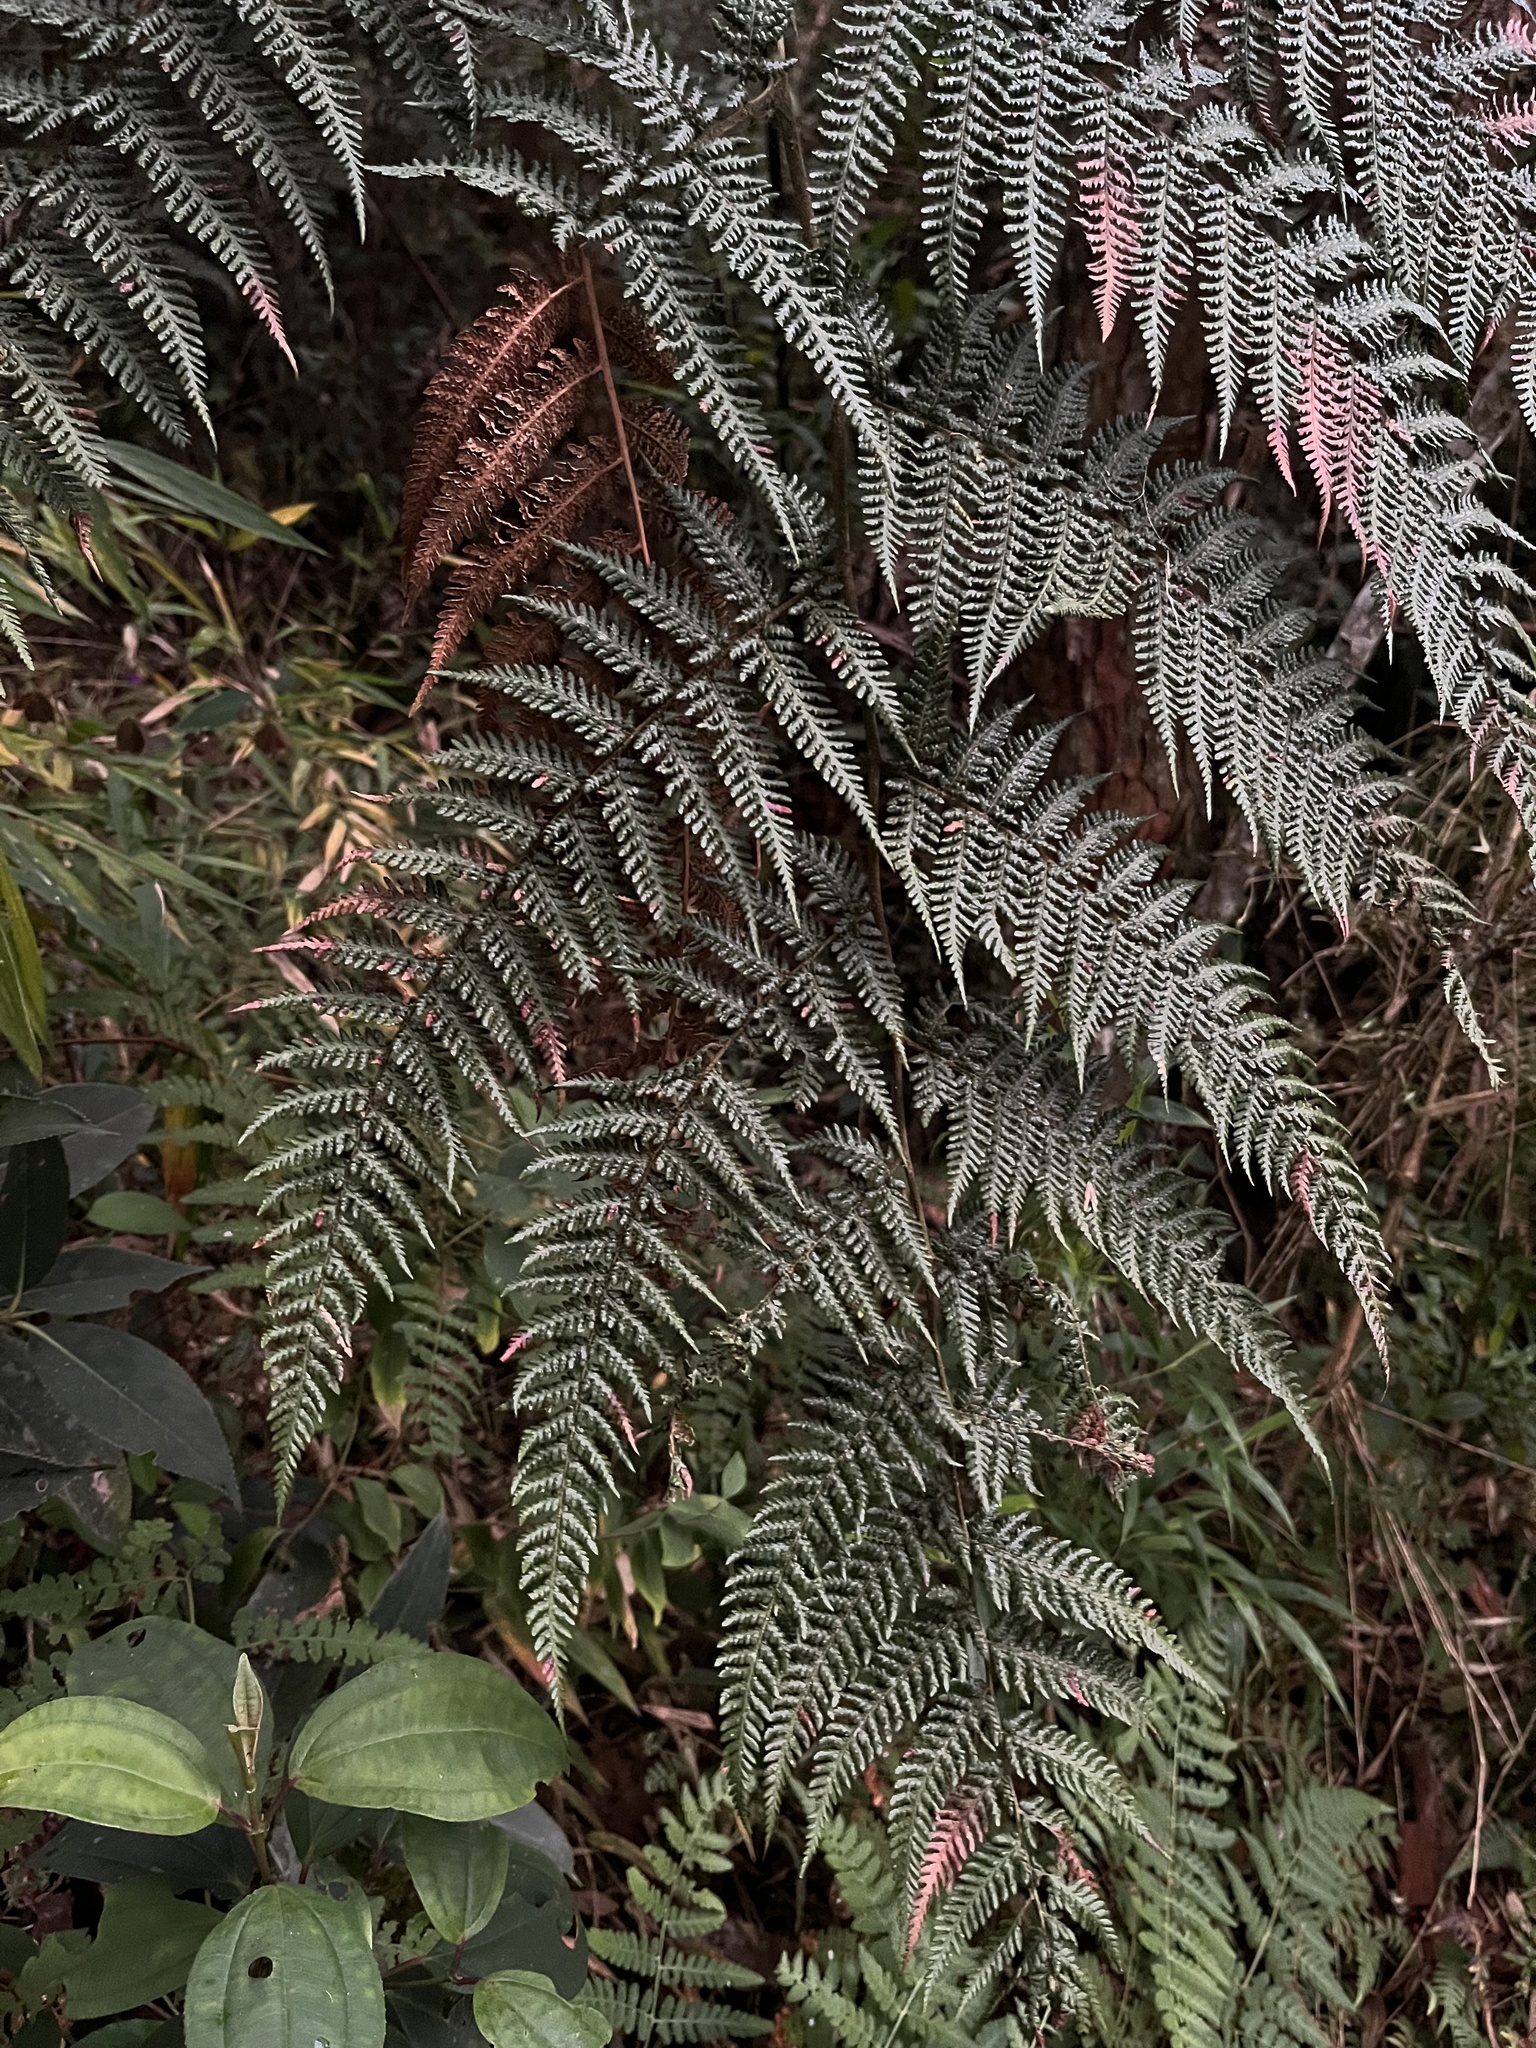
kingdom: Plantae
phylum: Tracheophyta
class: Polypodiopsida
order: Cyatheales
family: Dicksoniaceae
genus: Lophosoria
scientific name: Lophosoria quadripinnata
